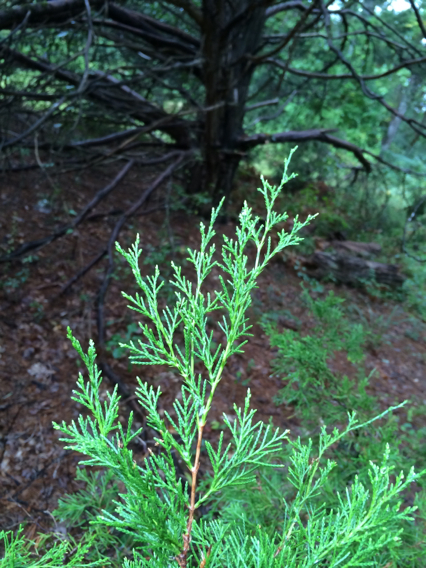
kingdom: Plantae
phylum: Tracheophyta
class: Pinopsida
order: Pinales
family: Cupressaceae
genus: Juniperus
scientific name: Juniperus virginiana
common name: Red juniper
